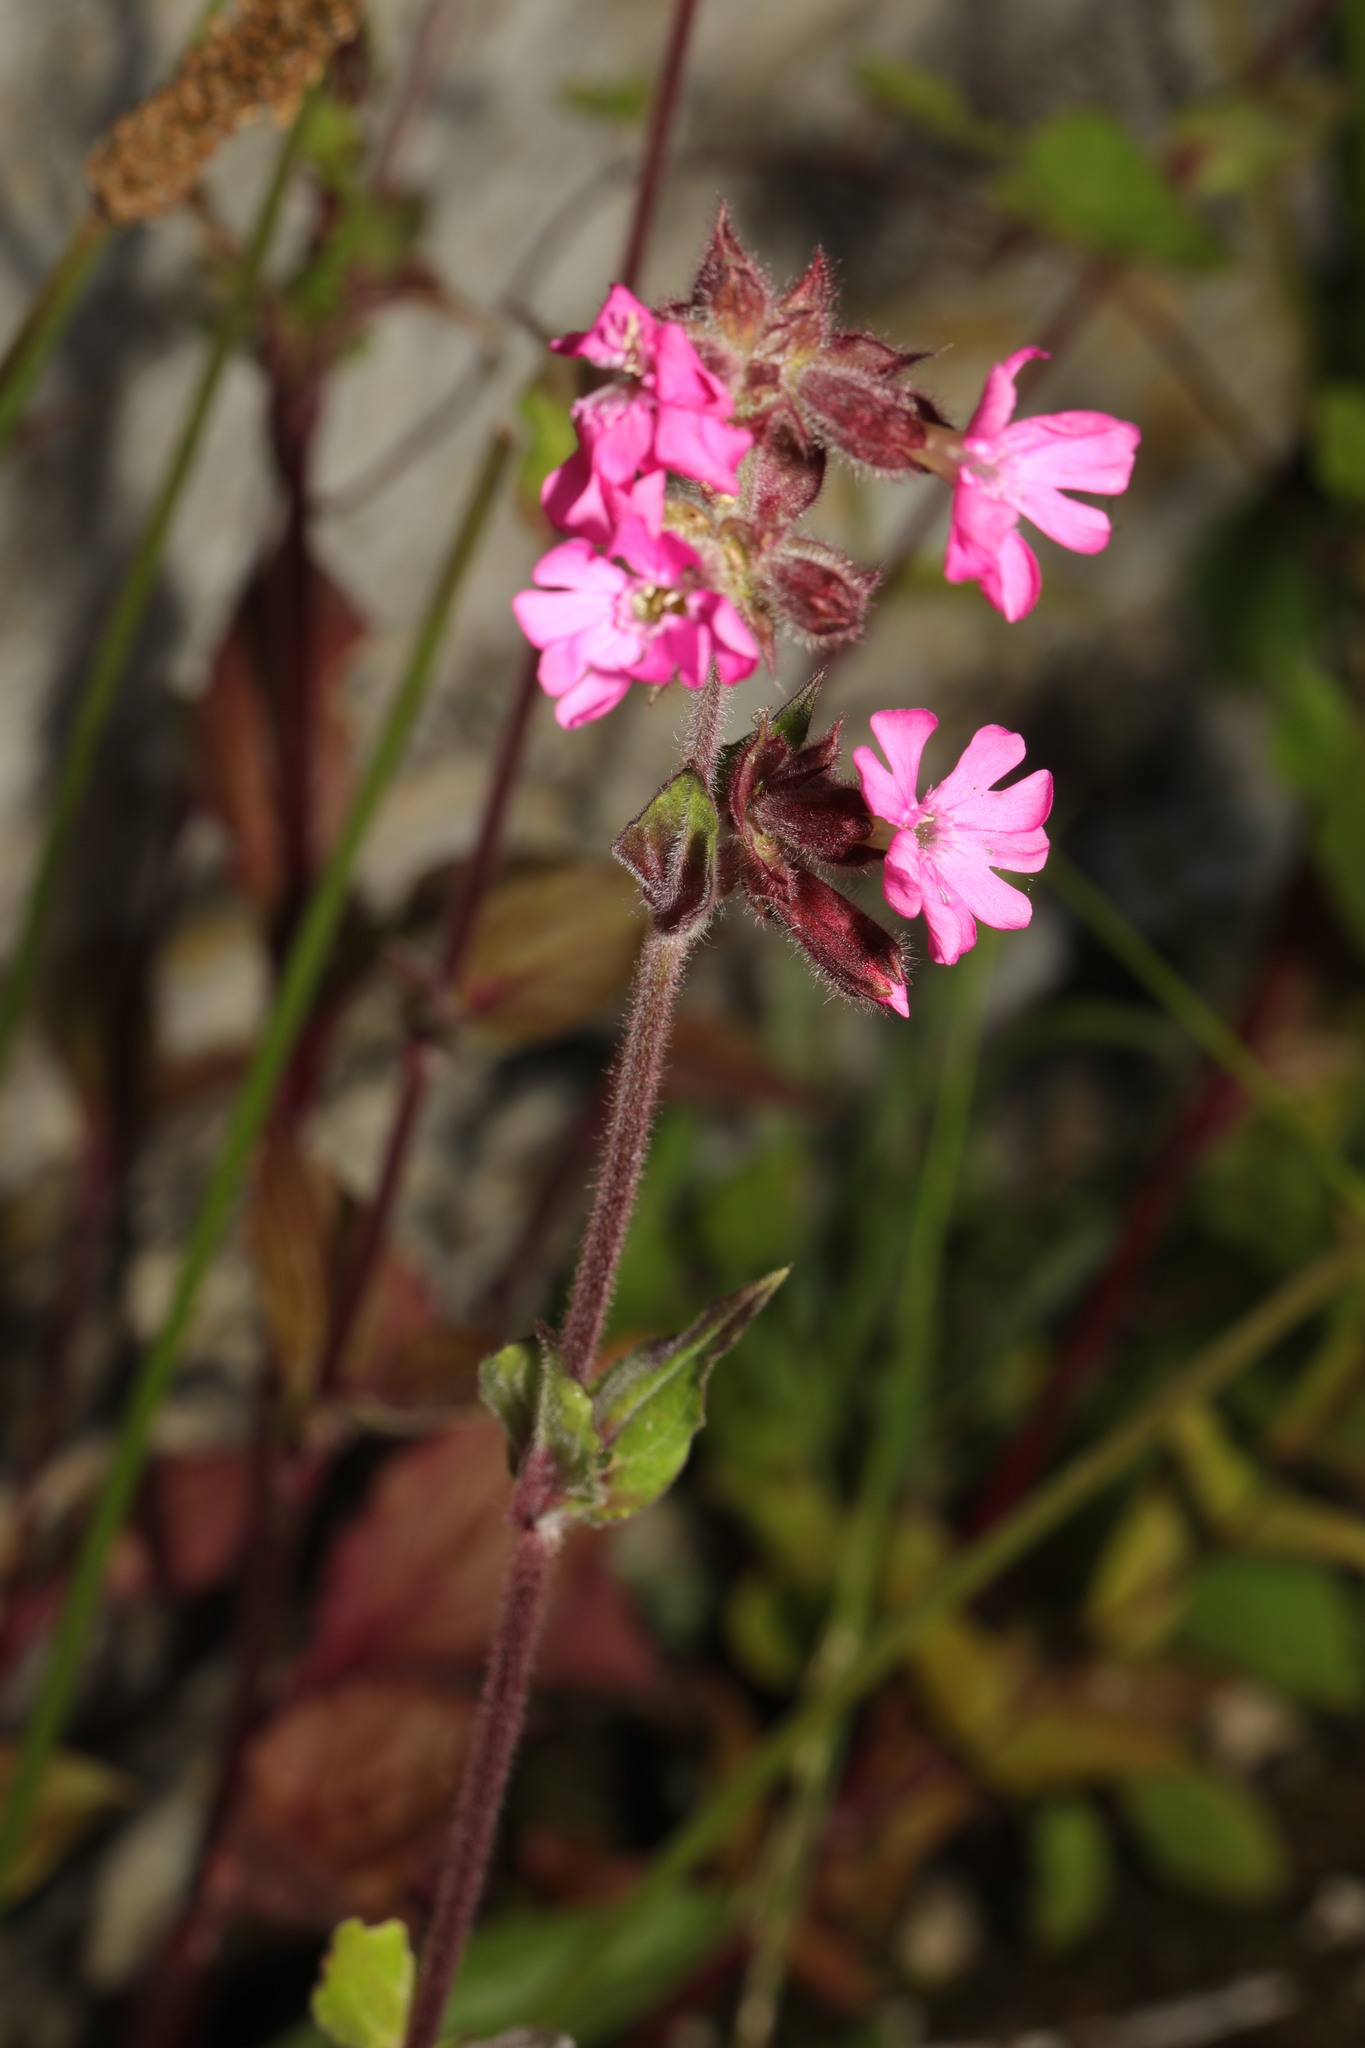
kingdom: Plantae
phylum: Tracheophyta
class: Magnoliopsida
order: Caryophyllales
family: Caryophyllaceae
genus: Silene
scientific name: Silene dioica
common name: Red campion
